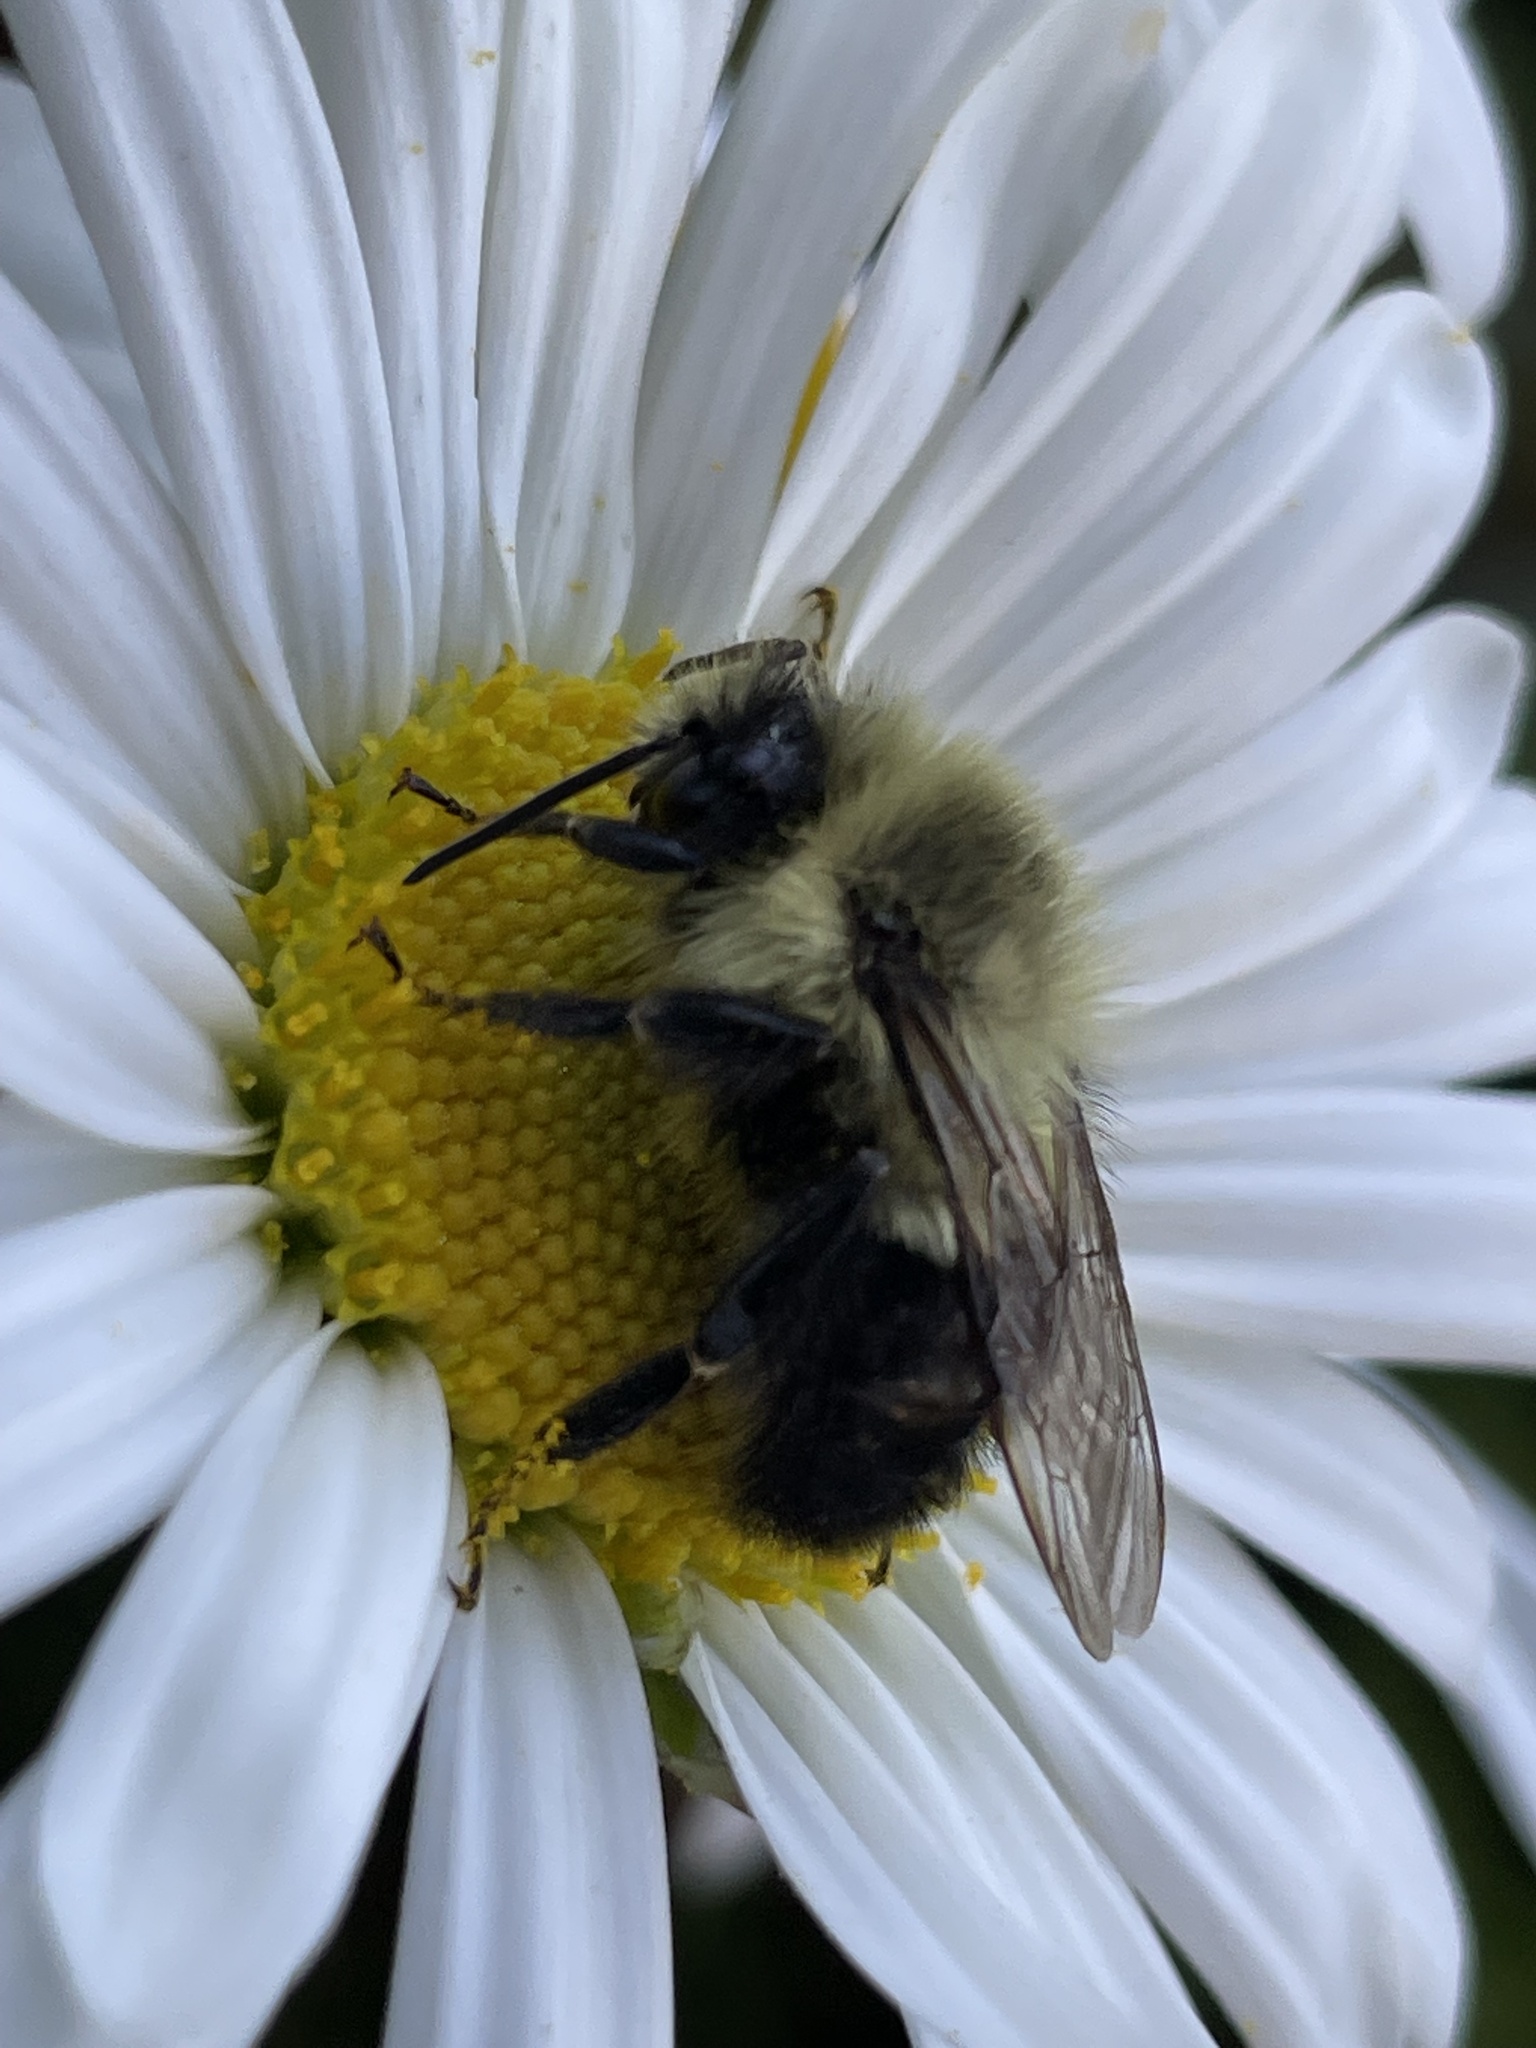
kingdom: Animalia
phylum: Arthropoda
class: Insecta
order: Hymenoptera
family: Apidae
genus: Bombus
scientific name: Bombus impatiens
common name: Common eastern bumble bee
